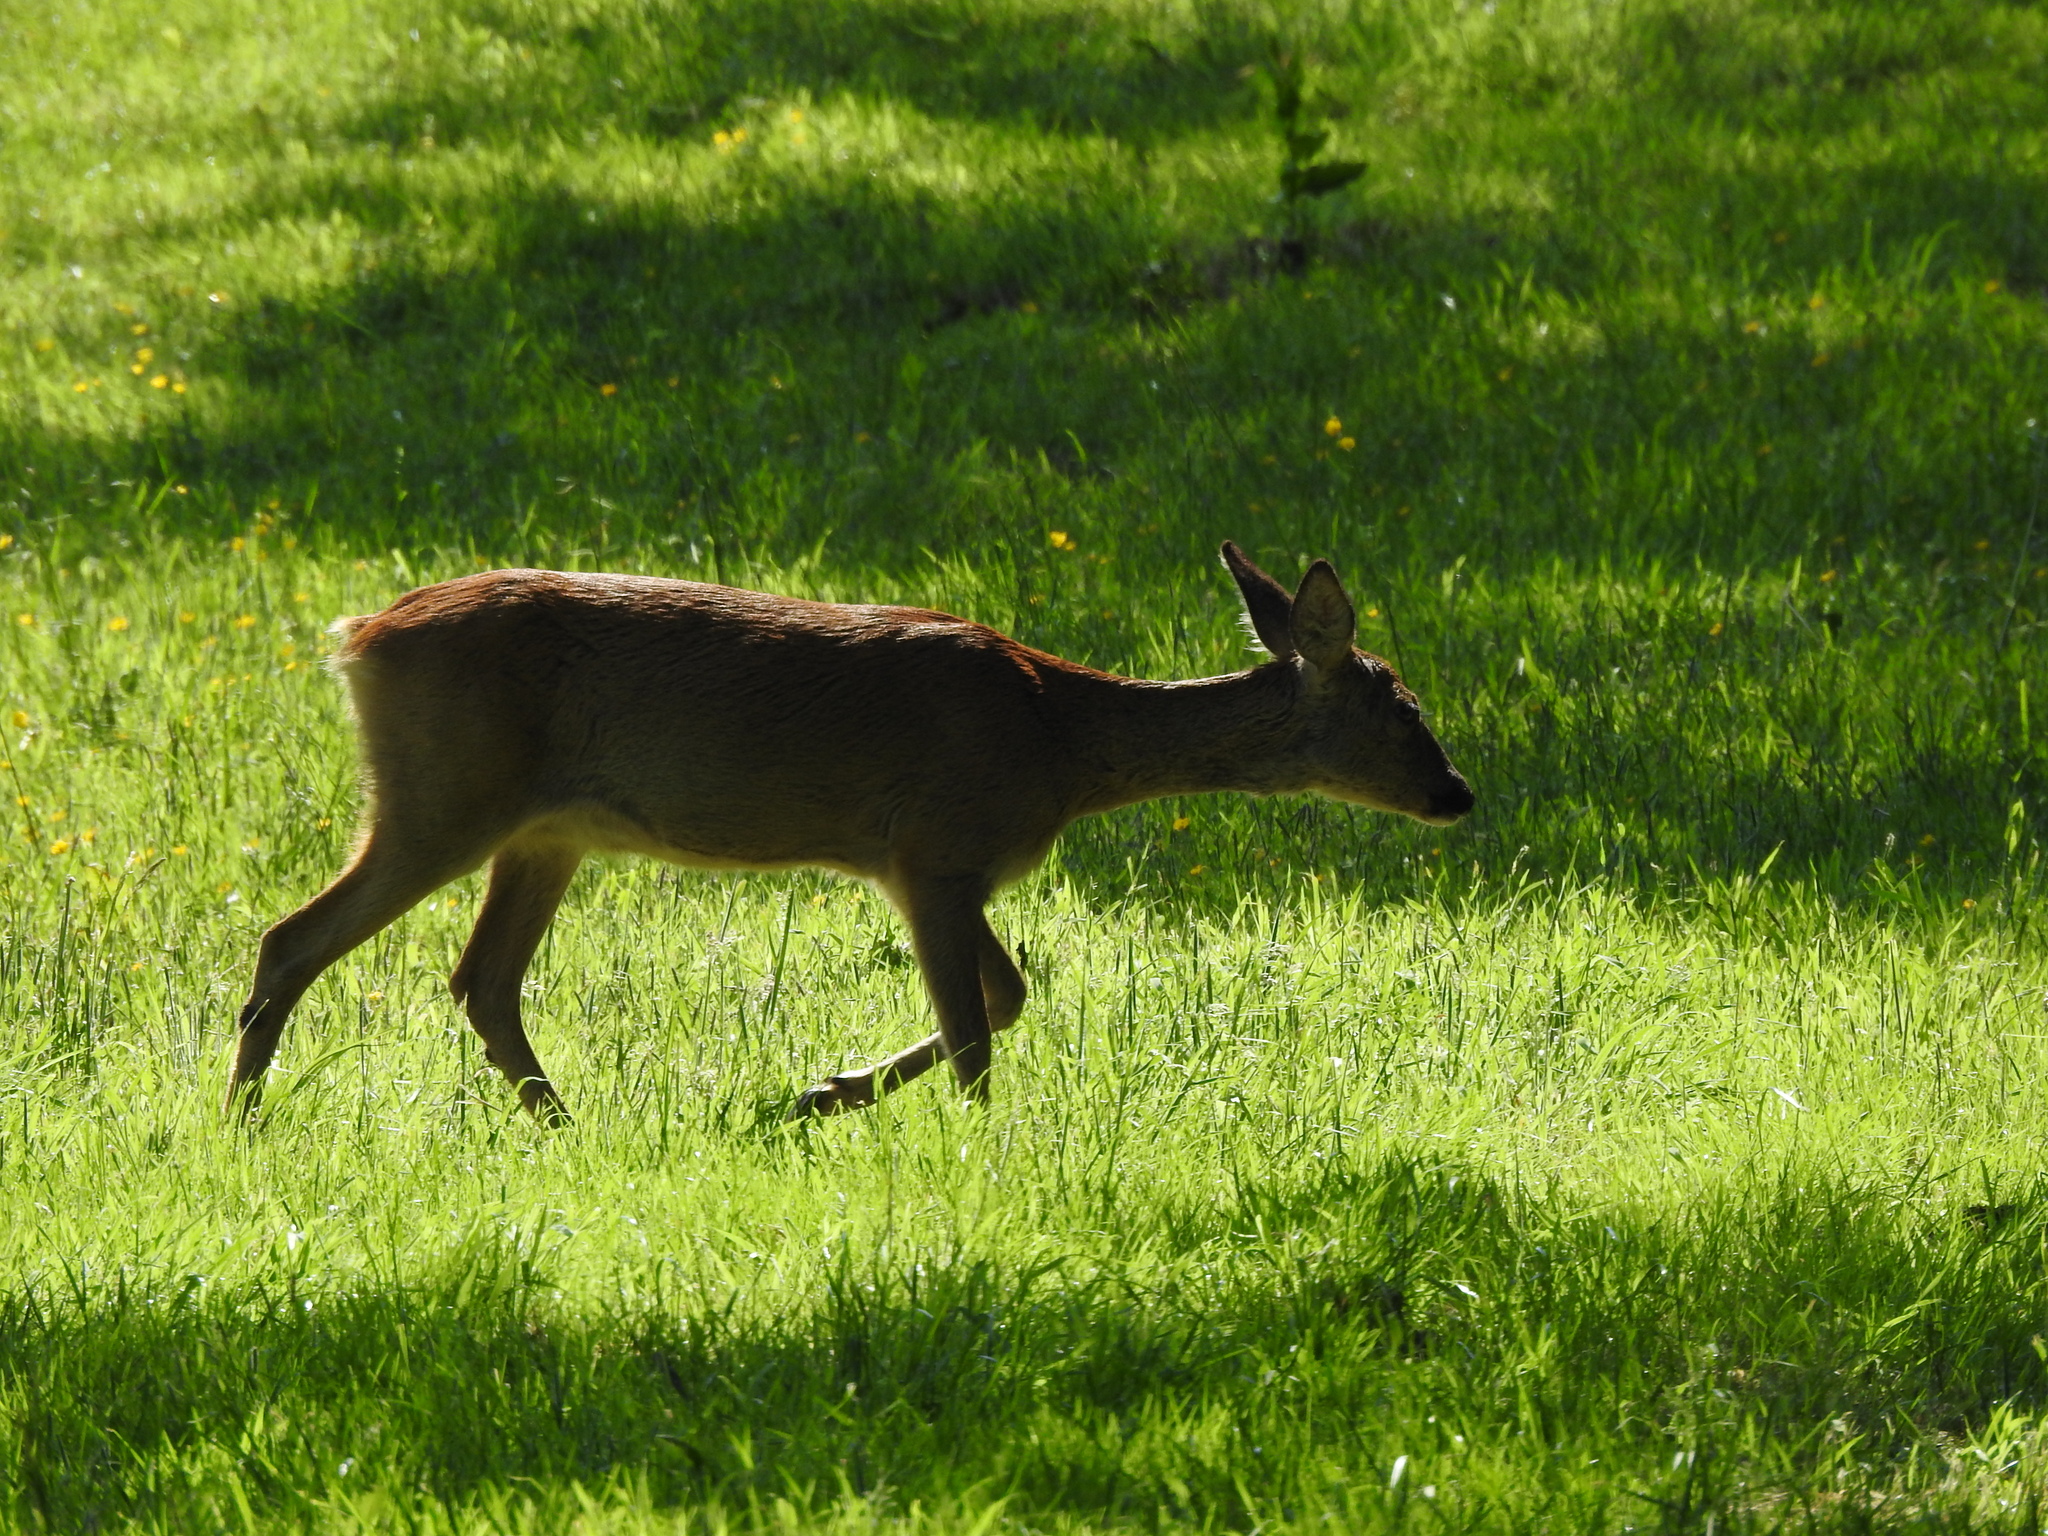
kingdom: Animalia
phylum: Chordata
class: Mammalia
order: Artiodactyla
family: Cervidae
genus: Capreolus
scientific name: Capreolus capreolus
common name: Western roe deer
